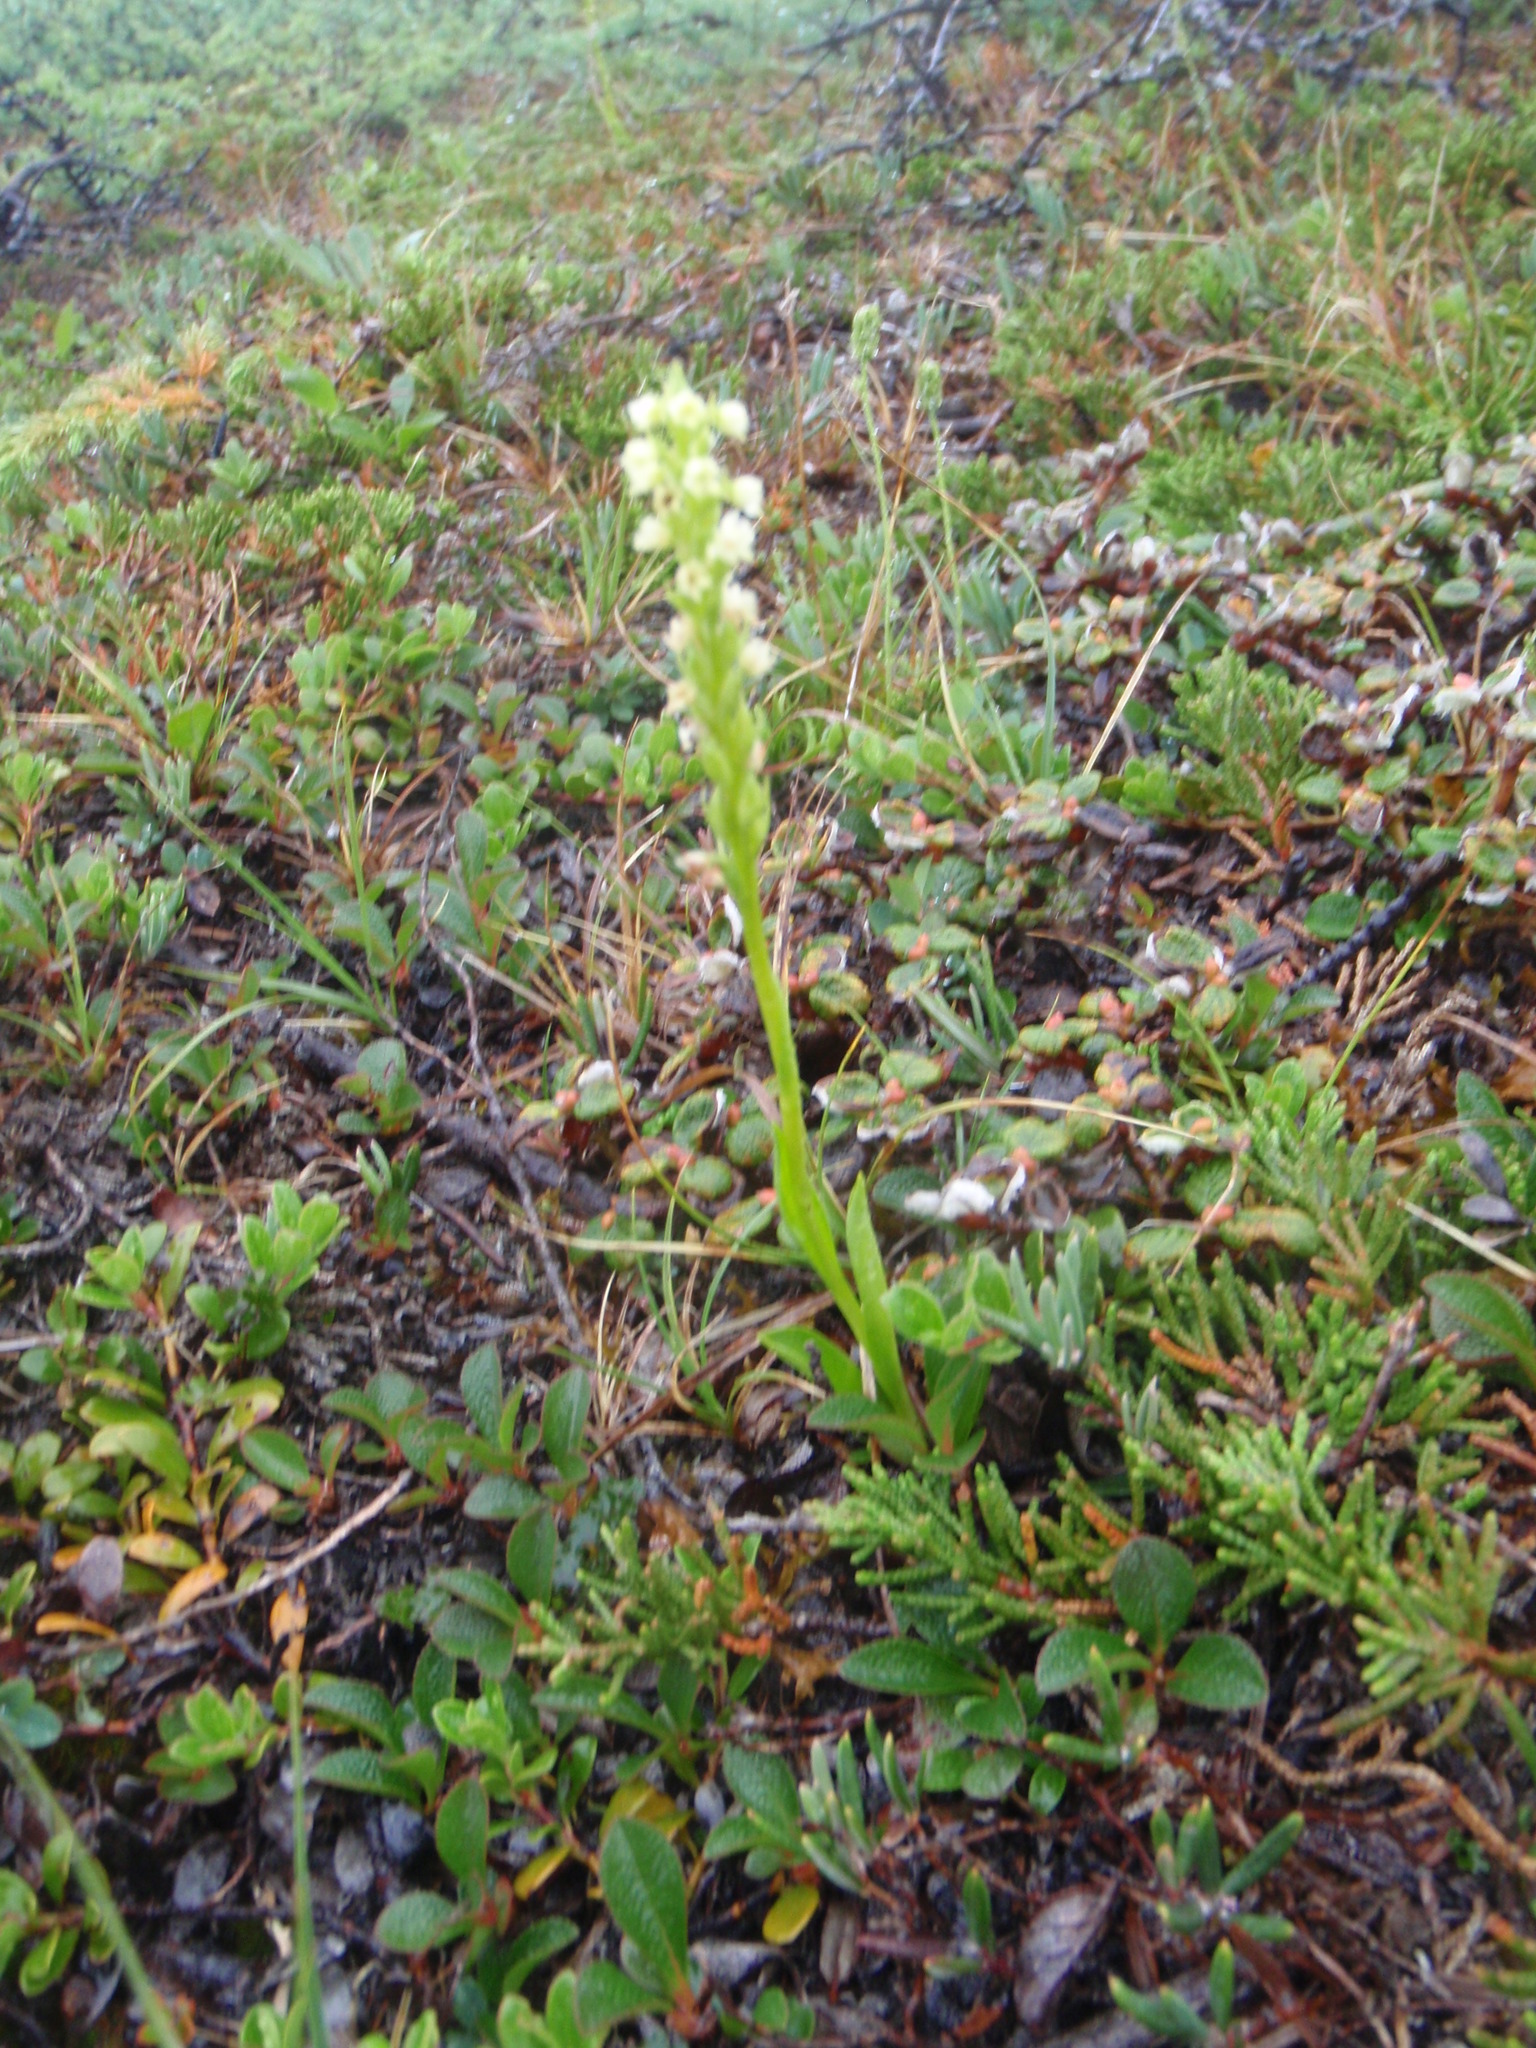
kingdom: Plantae
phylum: Tracheophyta
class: Liliopsida
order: Asparagales
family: Orchidaceae
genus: Pseudorchis
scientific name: Pseudorchis straminea
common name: Vanilla-scented bog orchid
